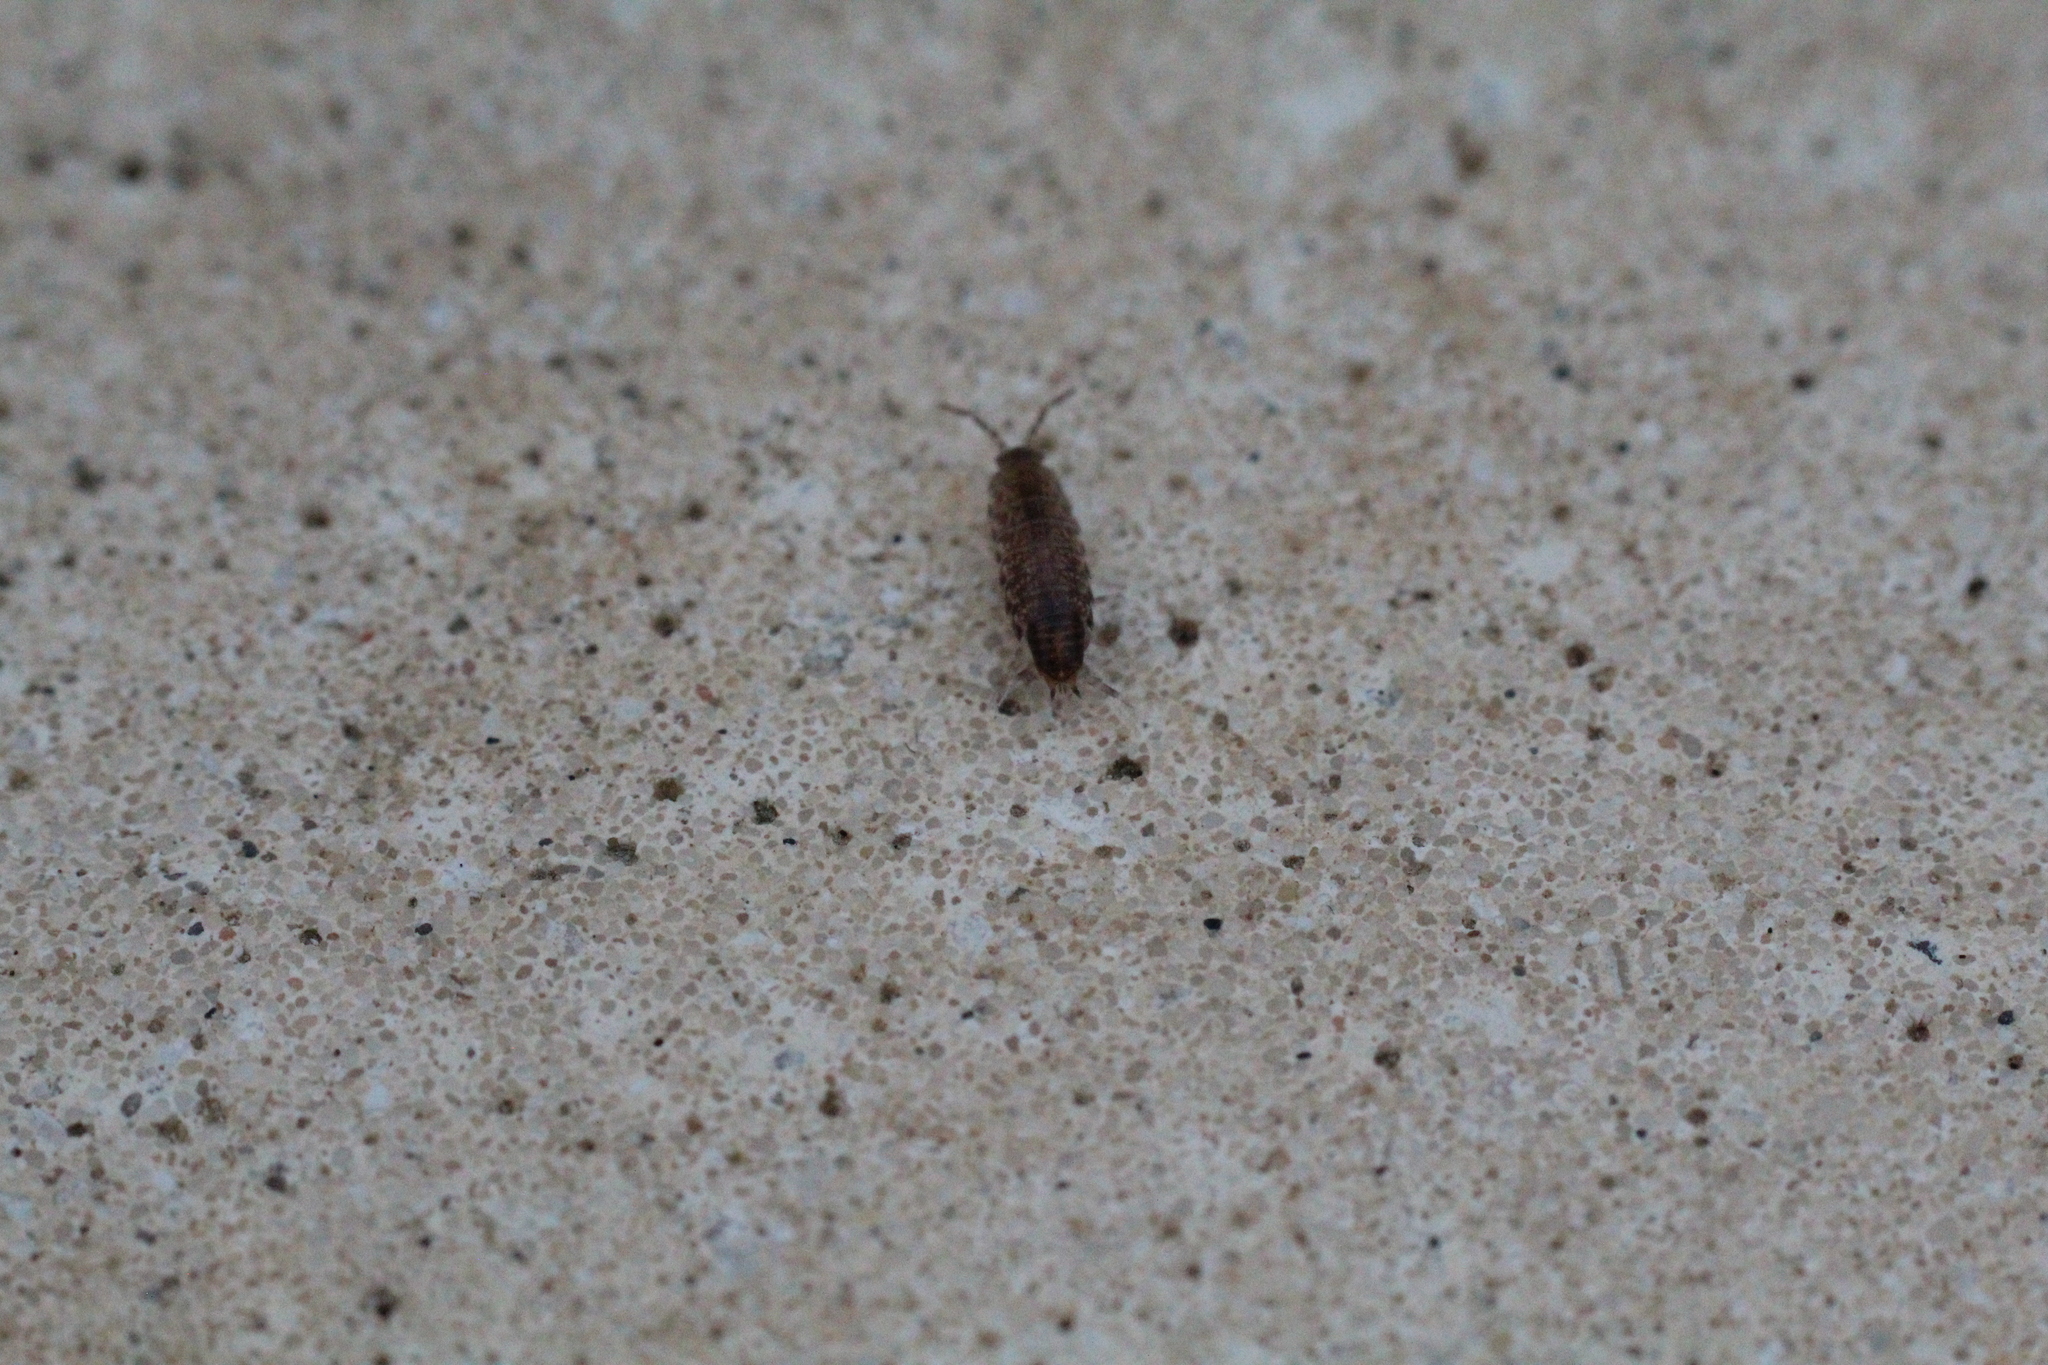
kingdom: Animalia
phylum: Arthropoda
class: Malacostraca
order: Isopoda
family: Philosciidae
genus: Chaetophiloscia
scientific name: Chaetophiloscia sicula
